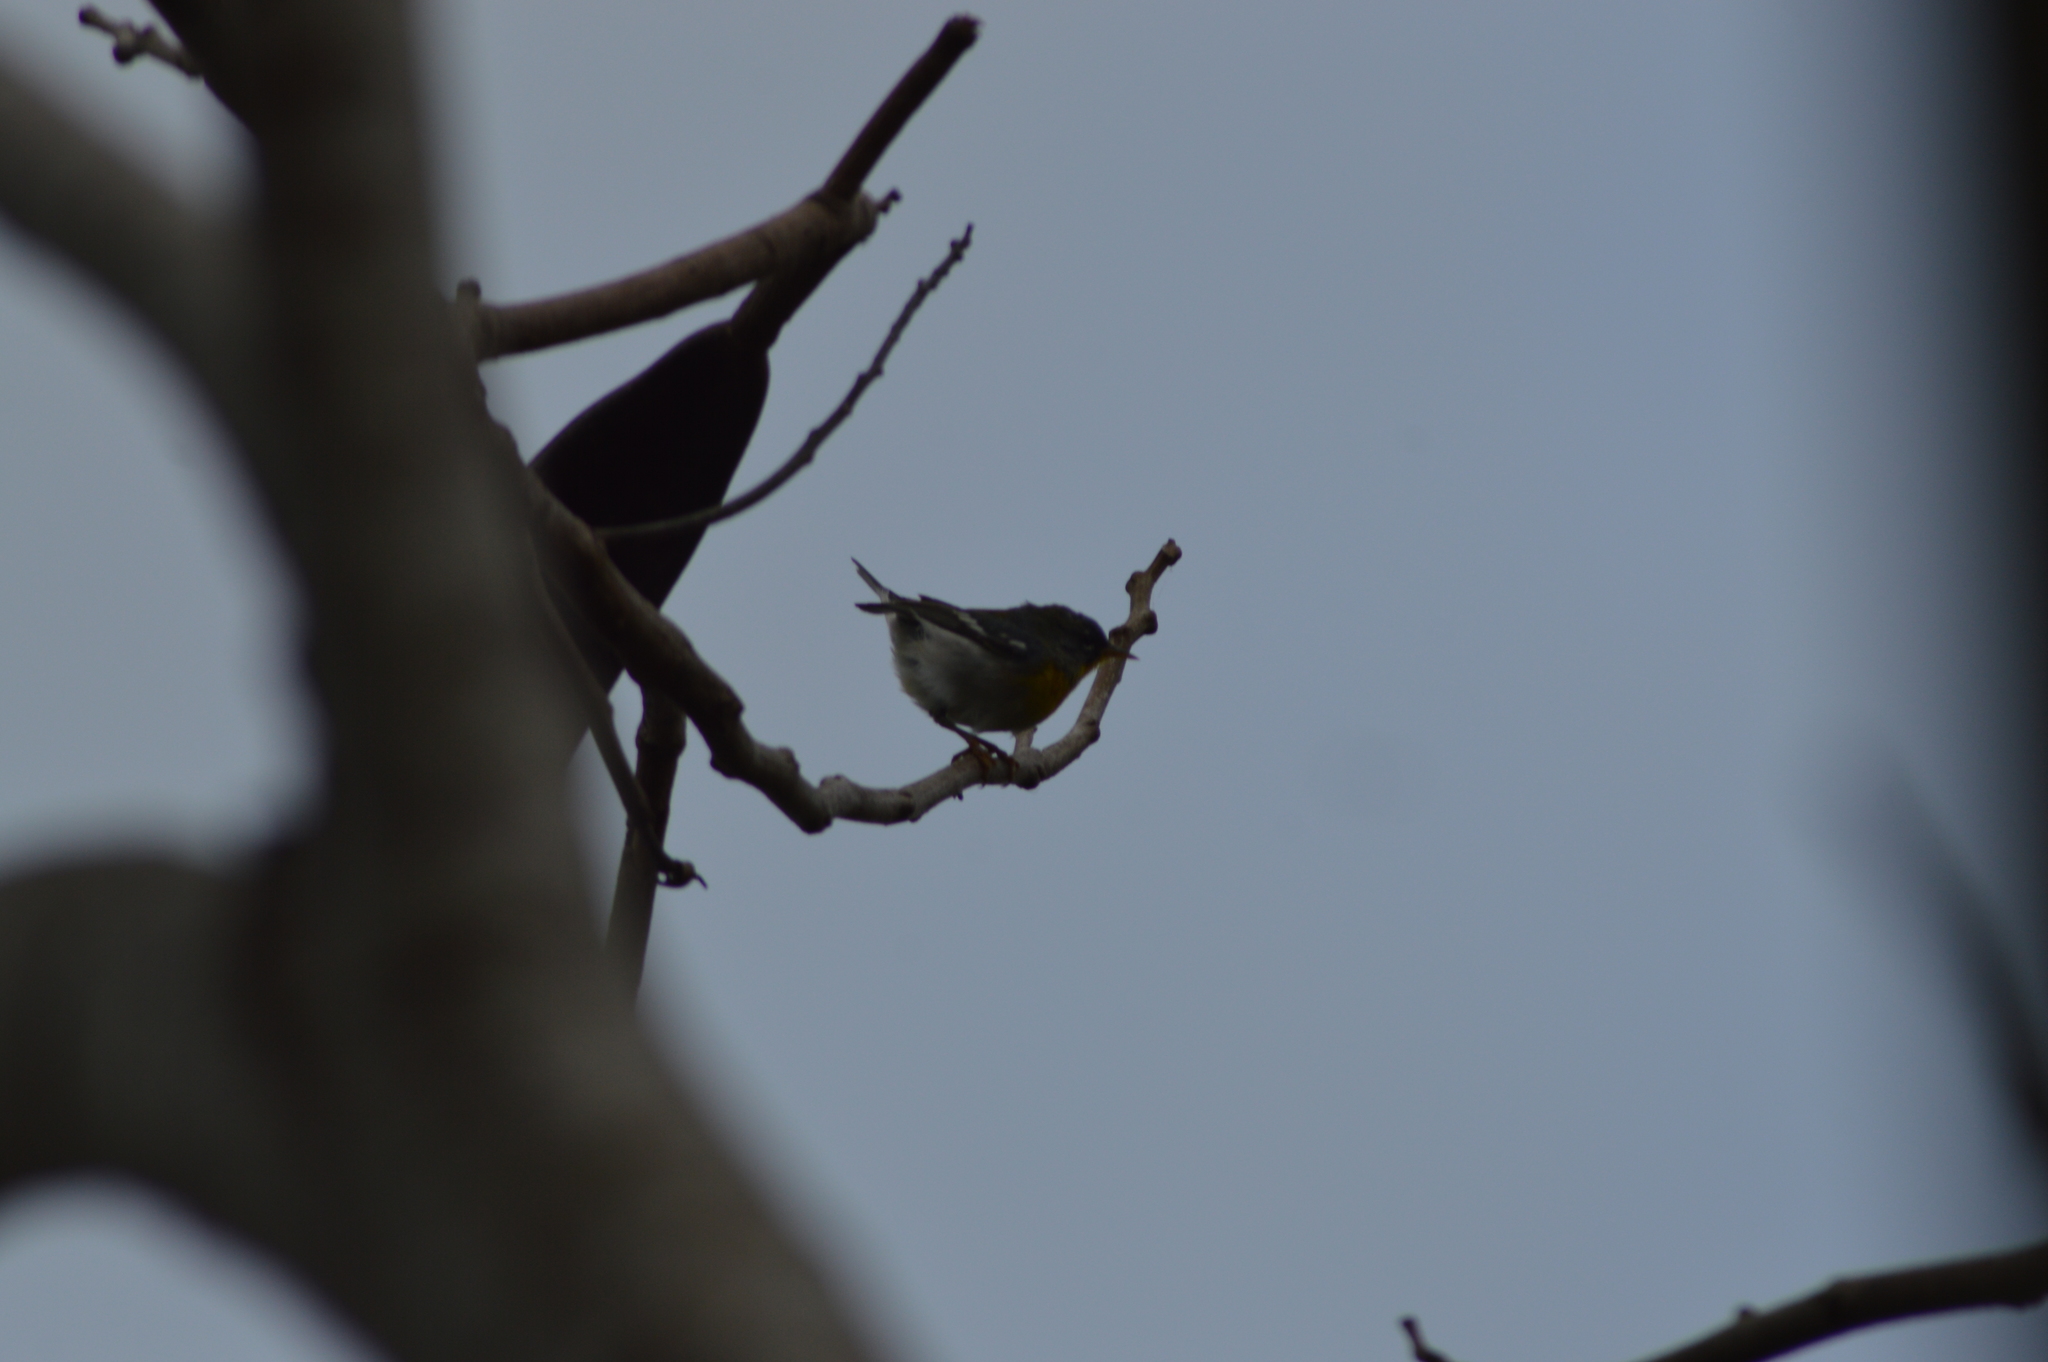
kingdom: Animalia
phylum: Chordata
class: Aves
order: Passeriformes
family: Parulidae
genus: Setophaga
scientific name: Setophaga americana
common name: Northern parula
